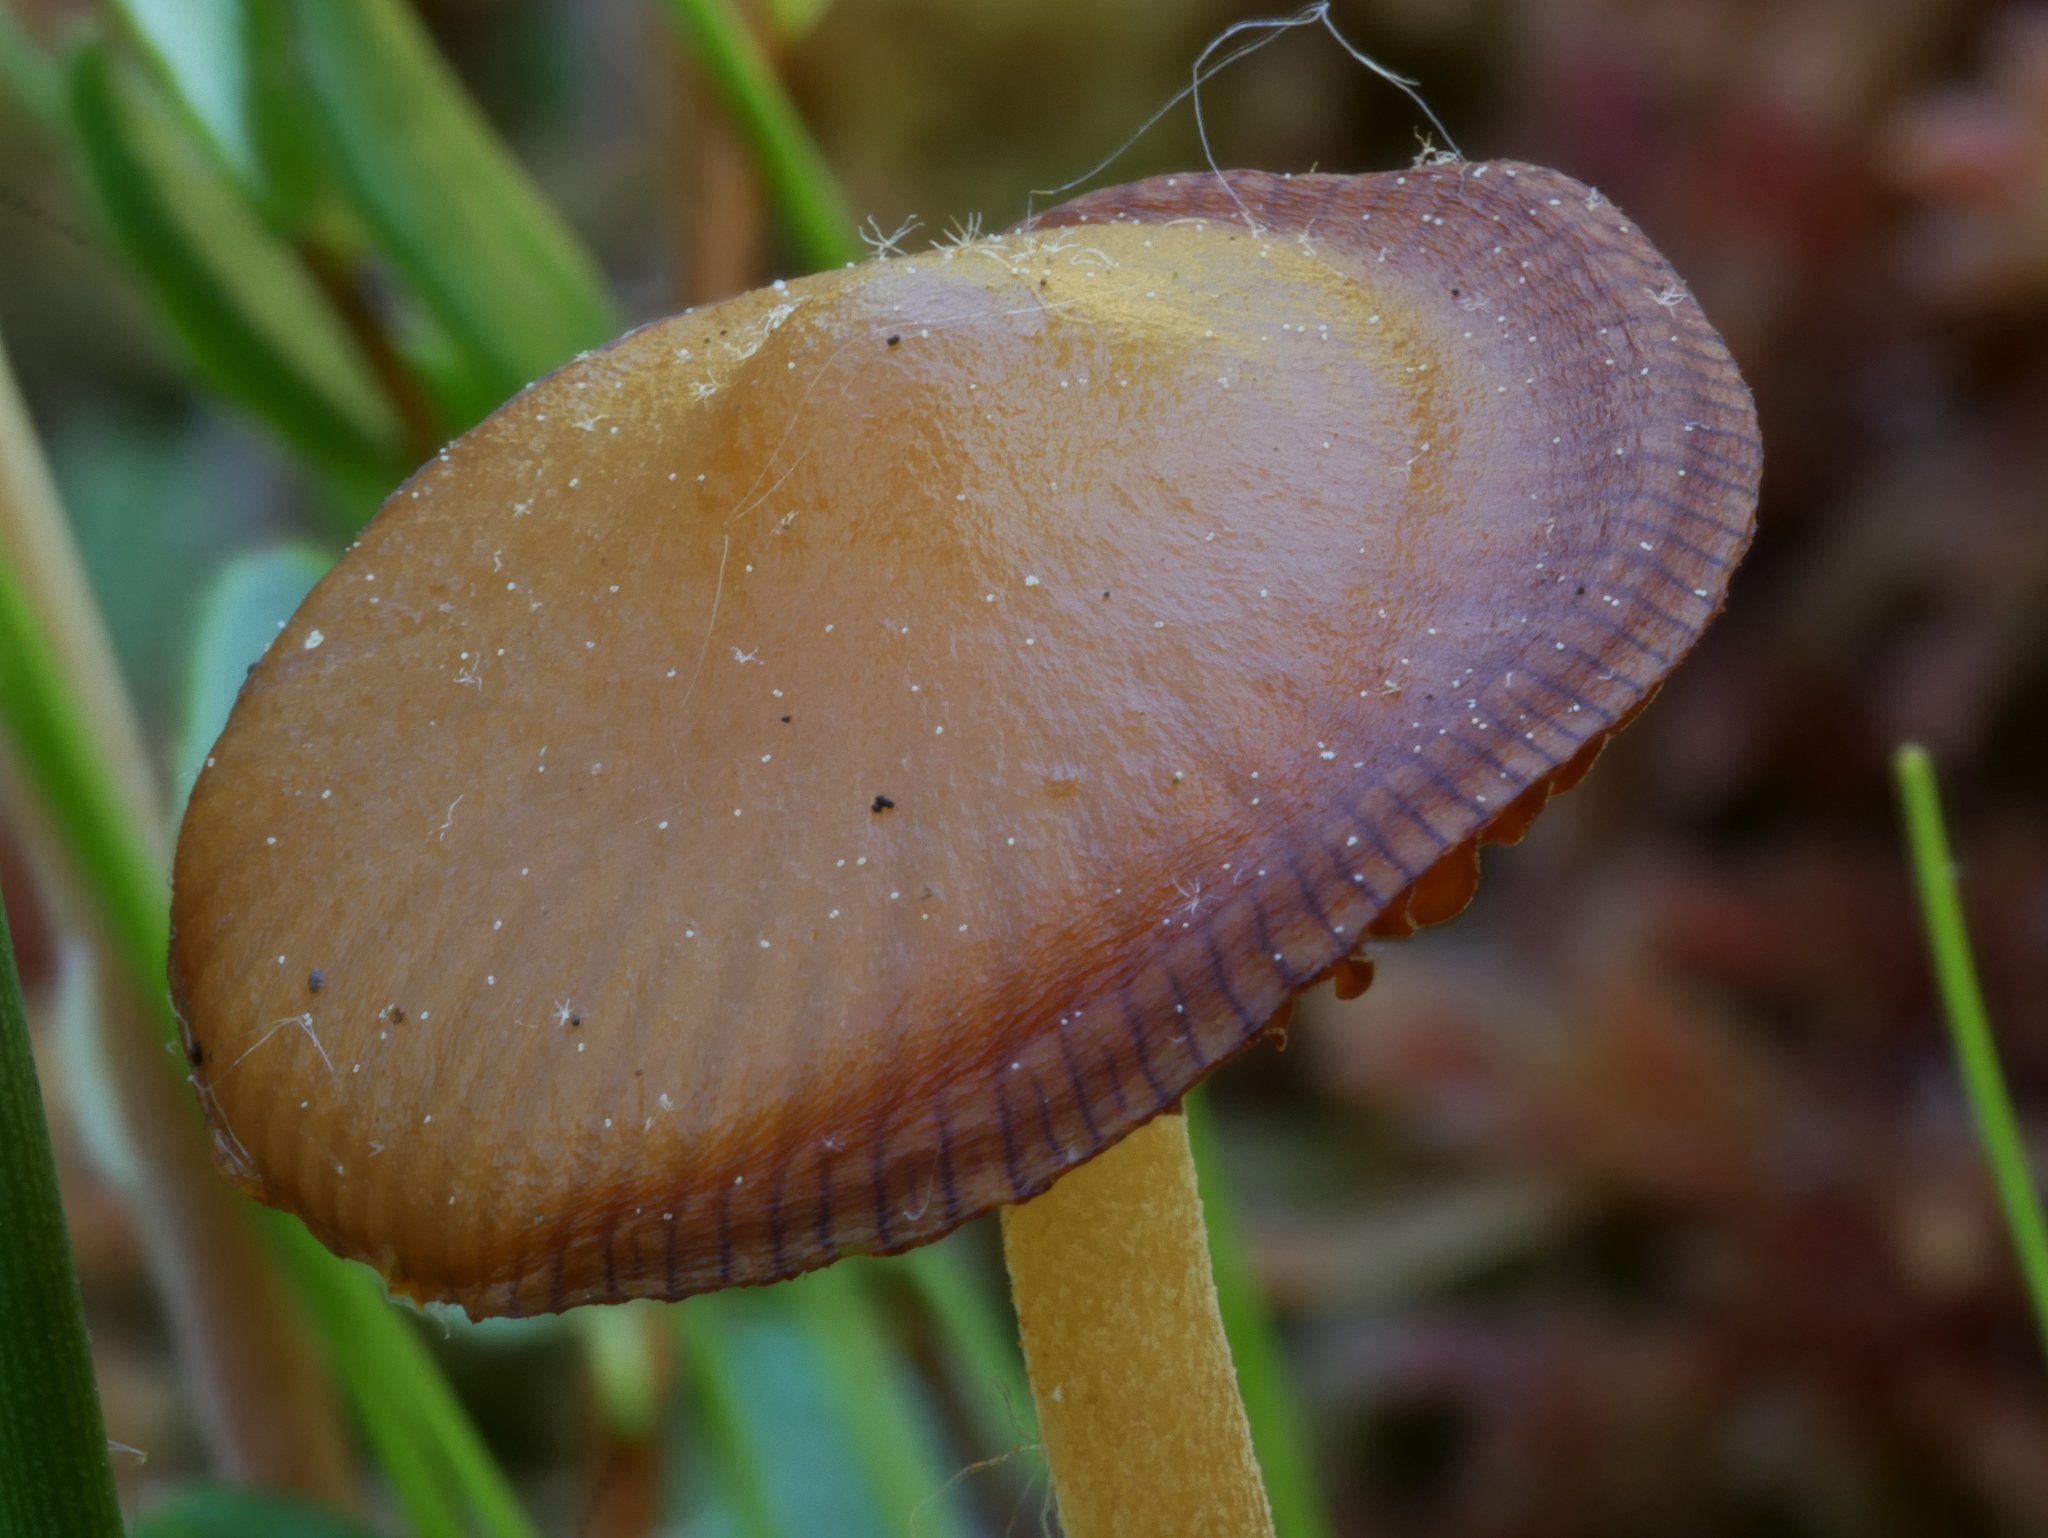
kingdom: Fungi
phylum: Basidiomycota
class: Agaricomycetes
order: Agaricales
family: Hymenogastraceae
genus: Galerina
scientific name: Galerina tibiicystis
